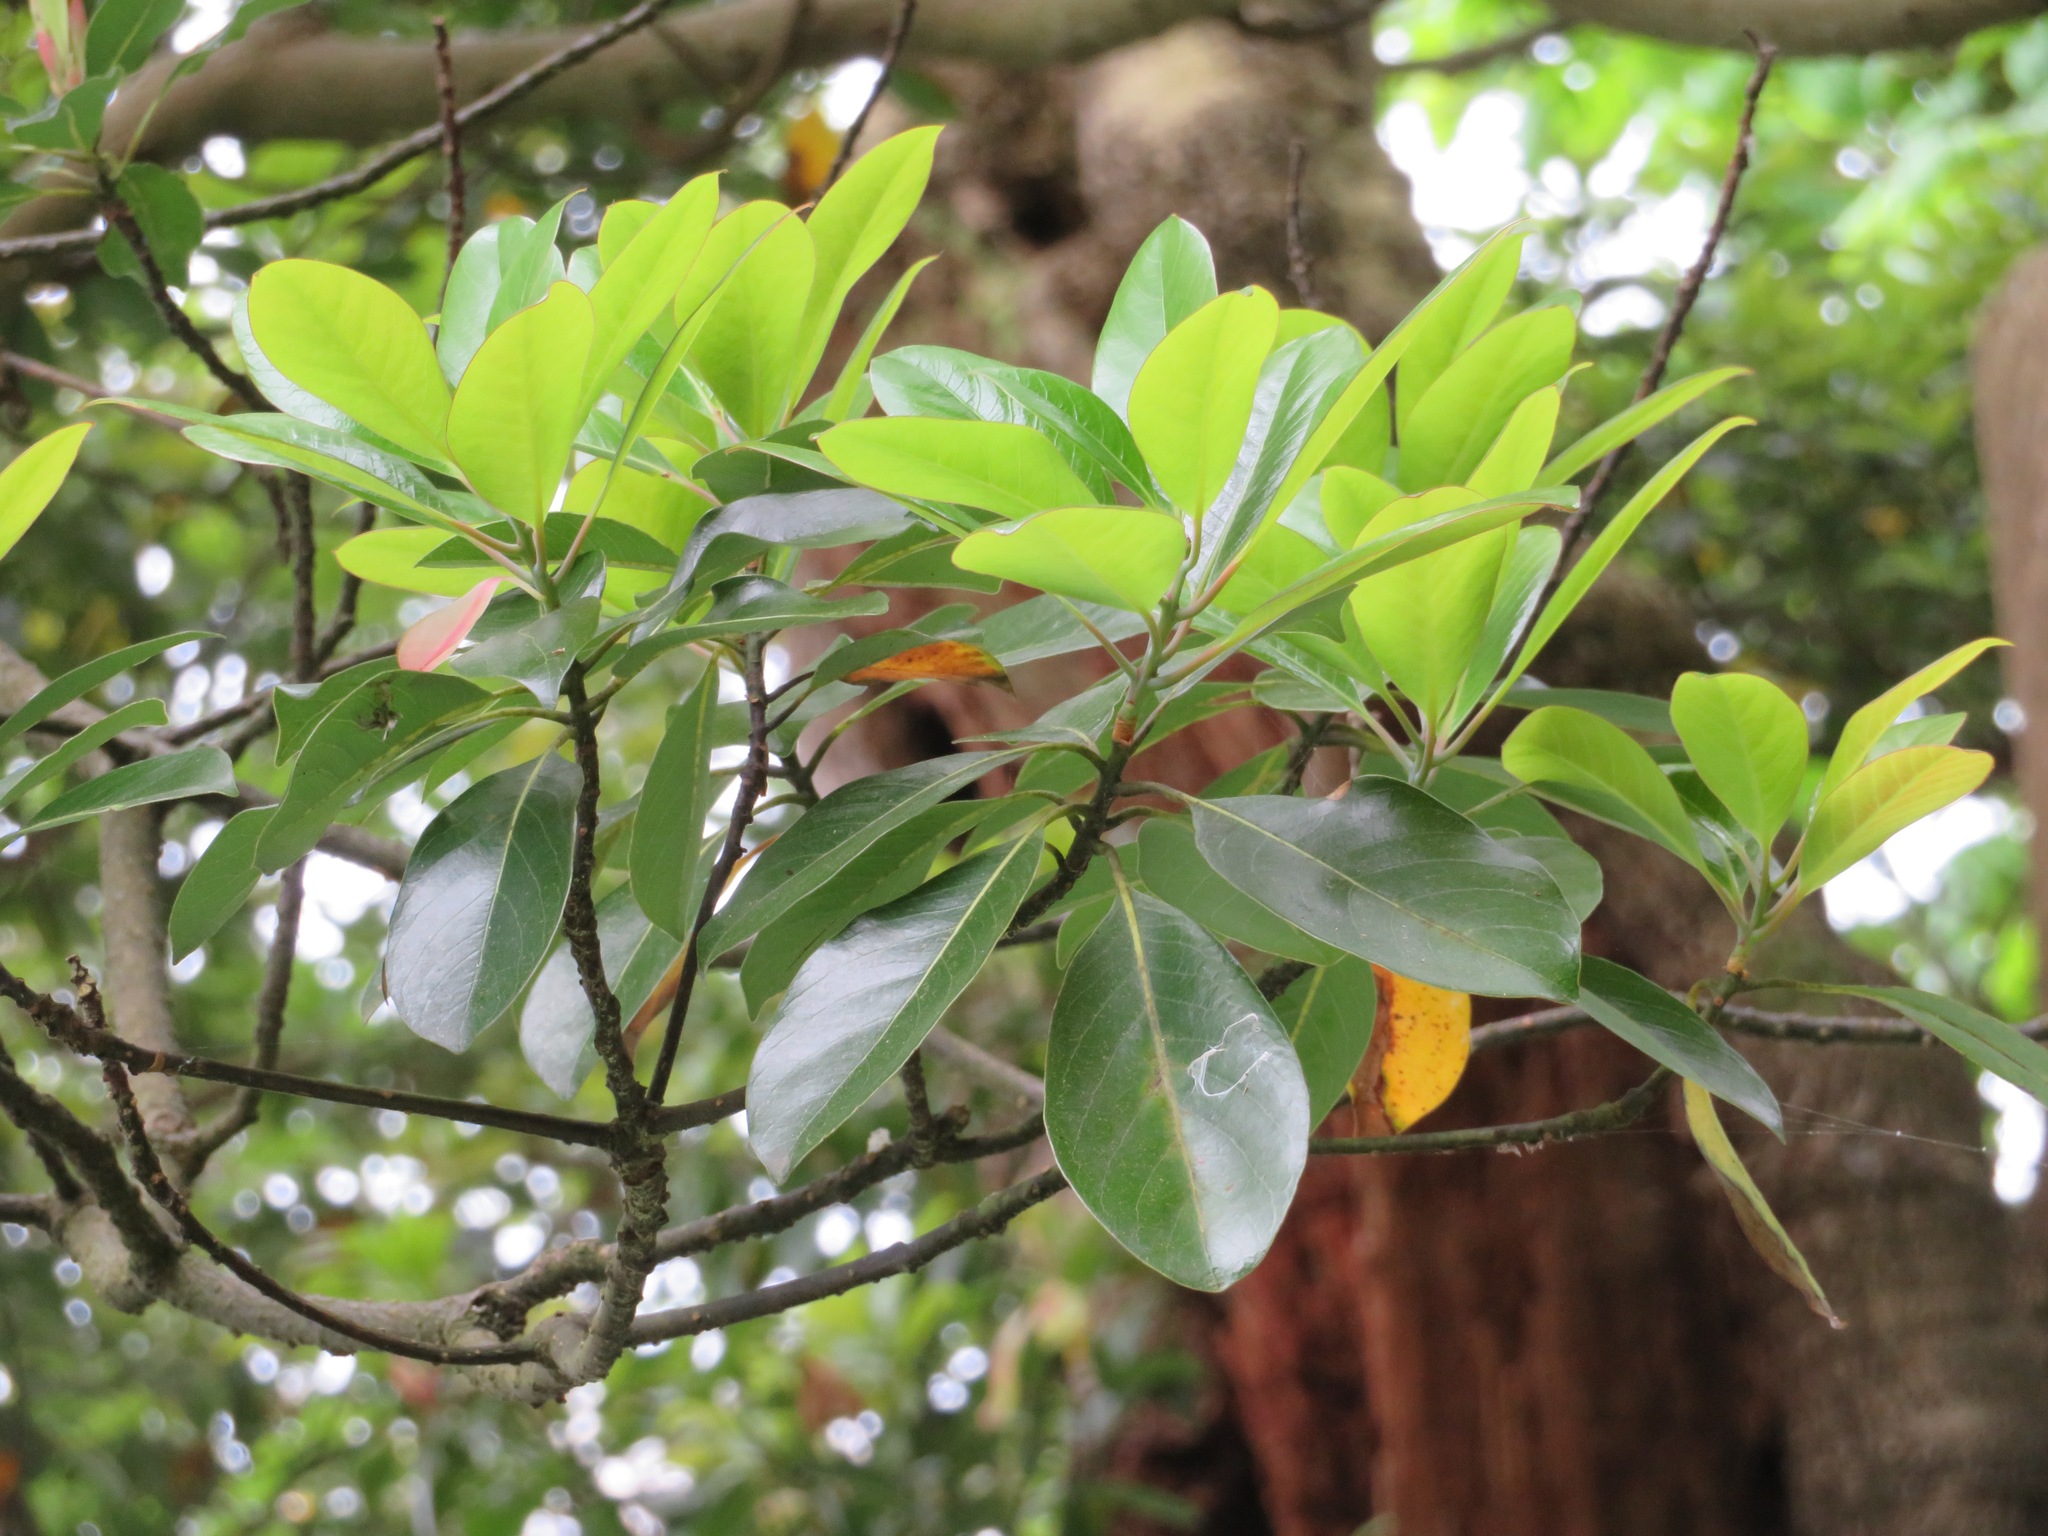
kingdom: Plantae
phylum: Tracheophyta
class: Magnoliopsida
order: Laurales
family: Lauraceae
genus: Machilus
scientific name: Machilus thunbergii
